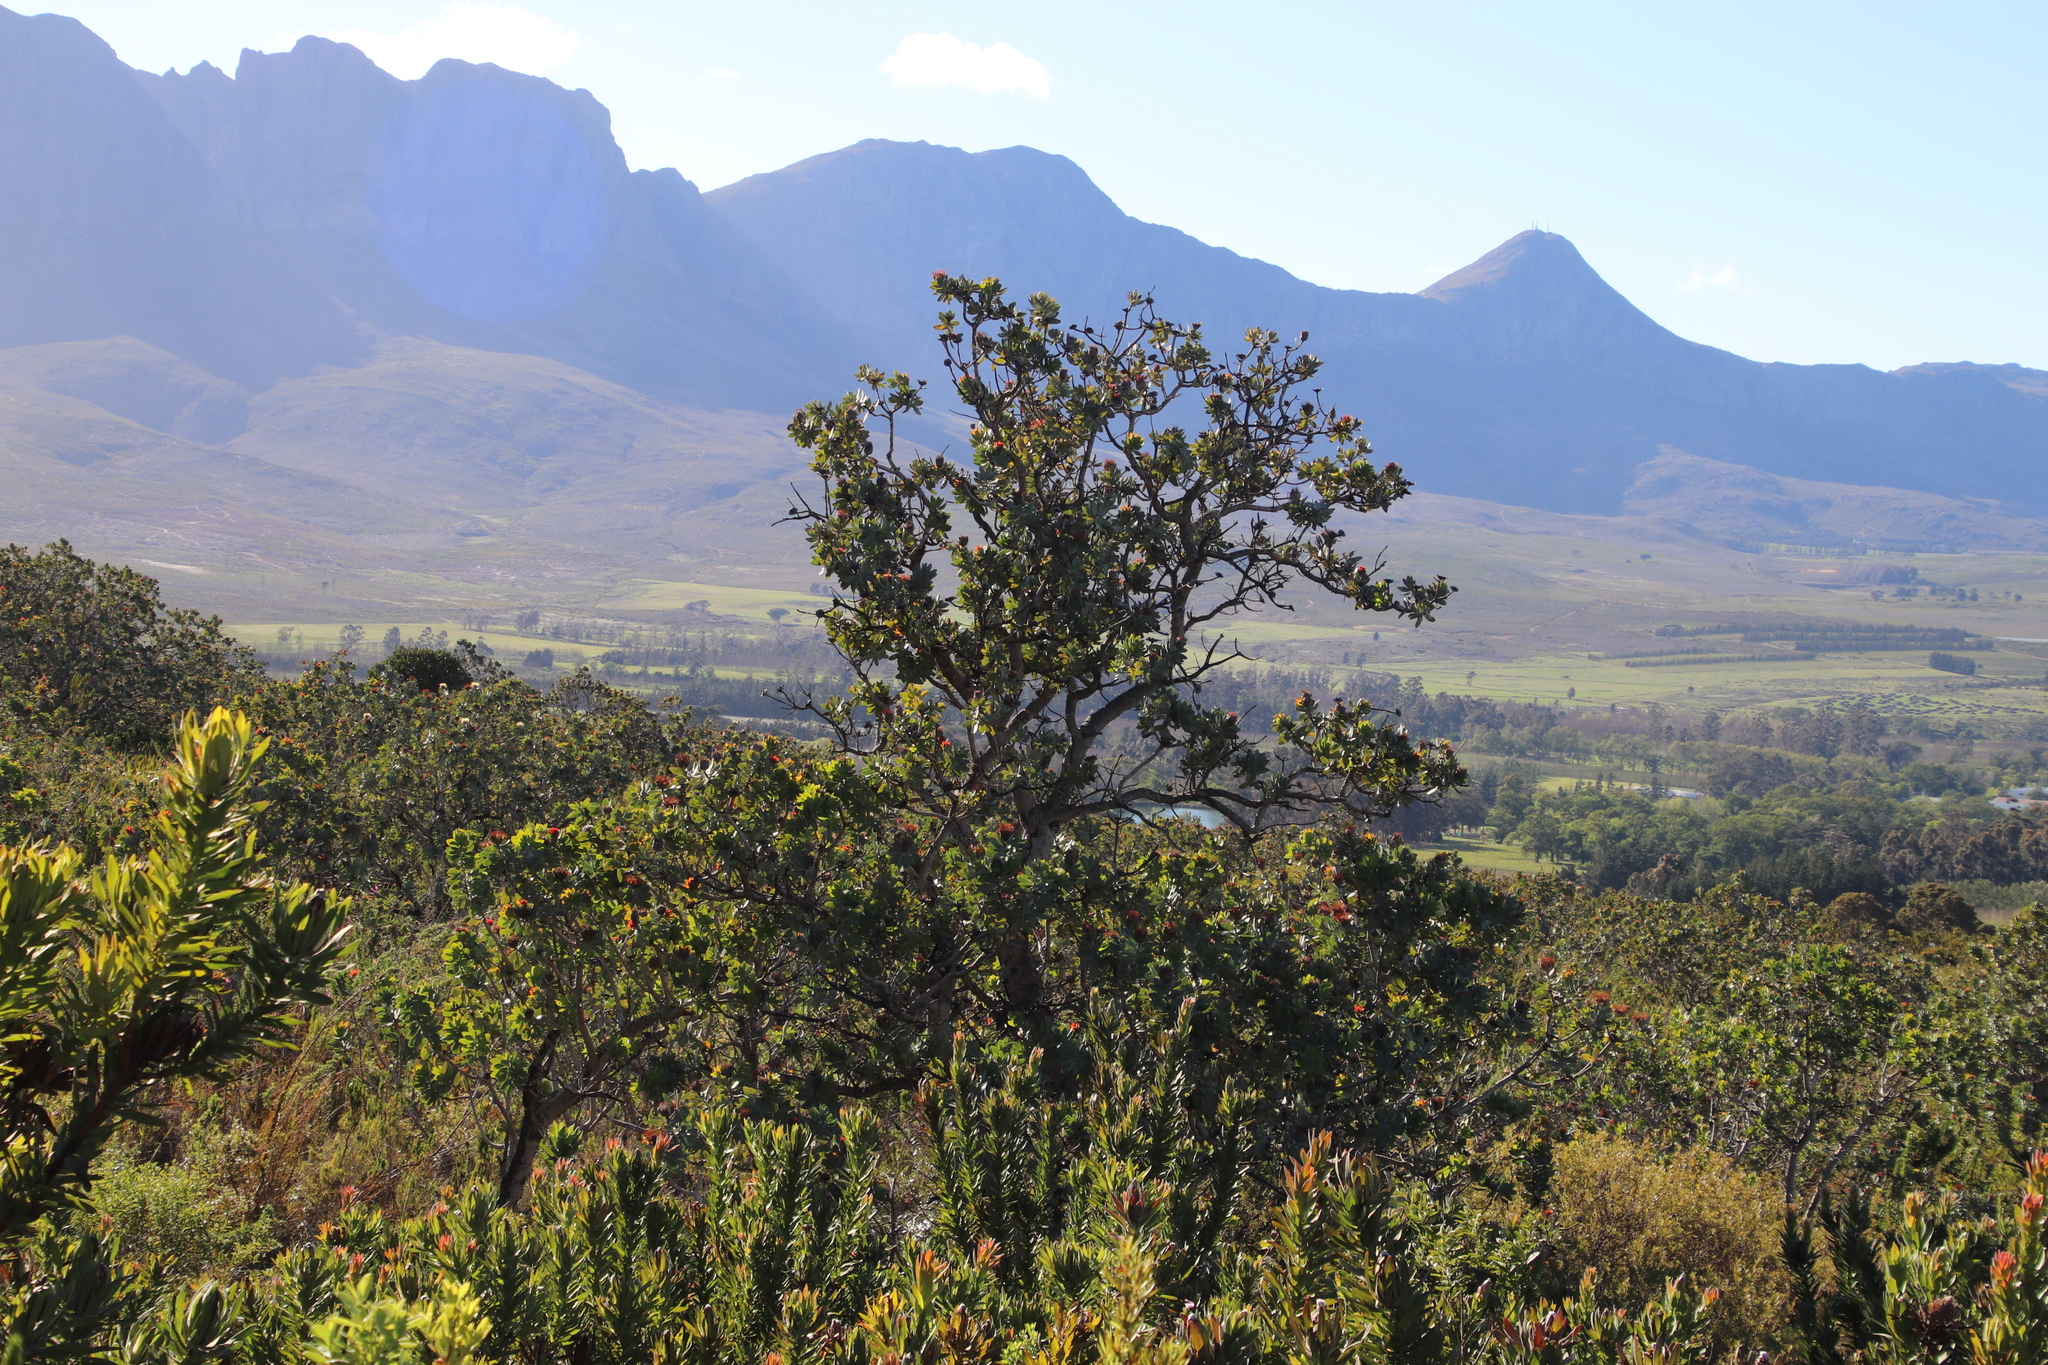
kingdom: Plantae
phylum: Tracheophyta
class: Magnoliopsida
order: Proteales
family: Proteaceae
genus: Protea
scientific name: Protea nitida
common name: Tree protea
